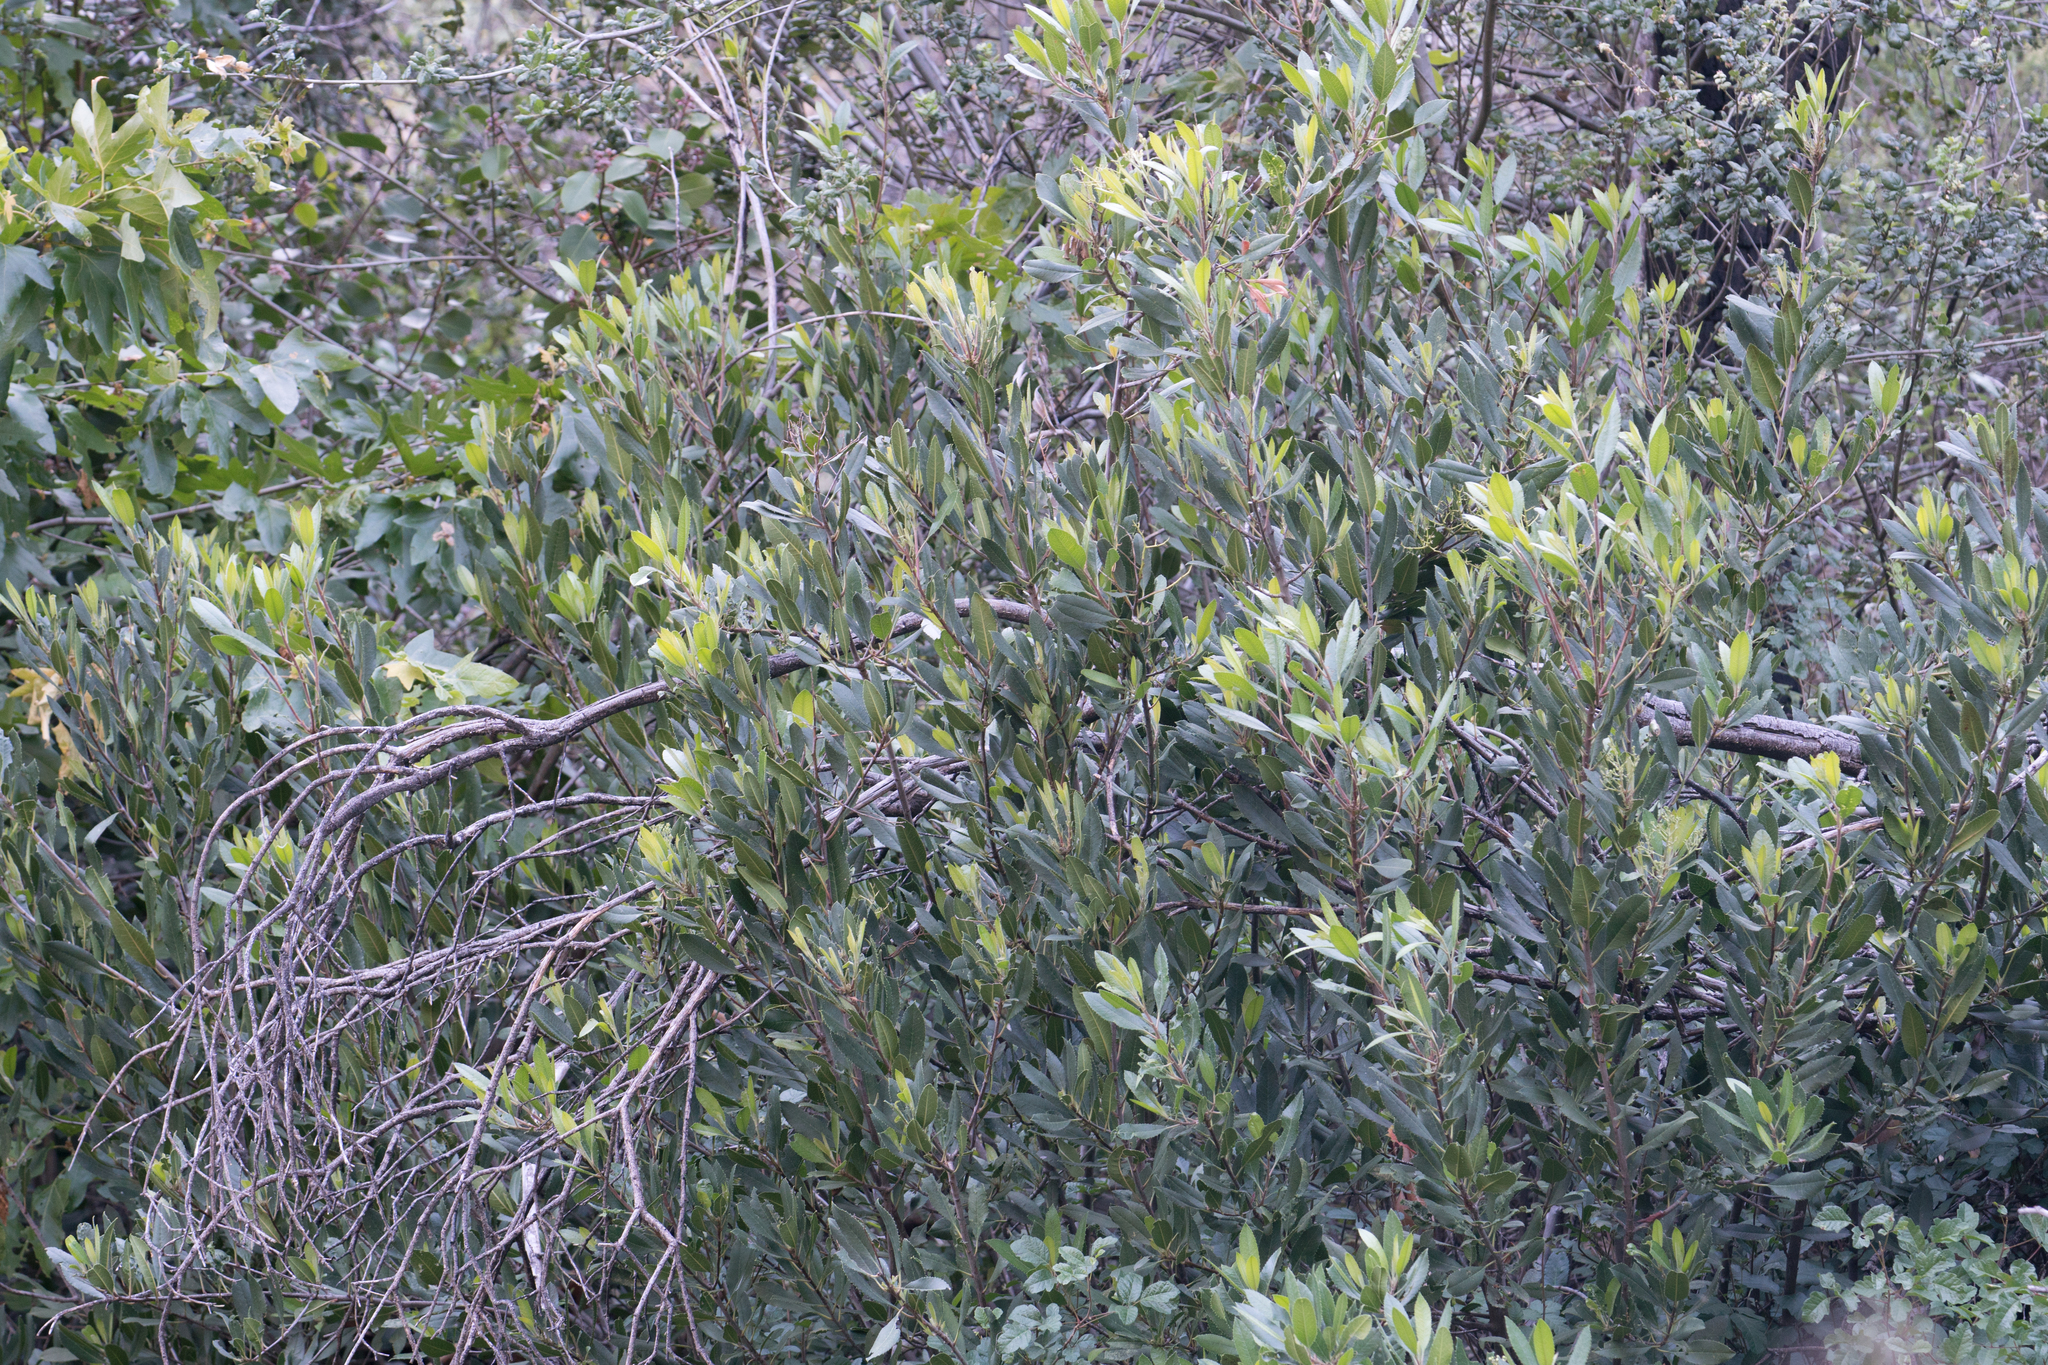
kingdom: Plantae
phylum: Tracheophyta
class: Magnoliopsida
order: Rosales
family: Rosaceae
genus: Heteromeles
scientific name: Heteromeles arbutifolia
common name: California-holly
